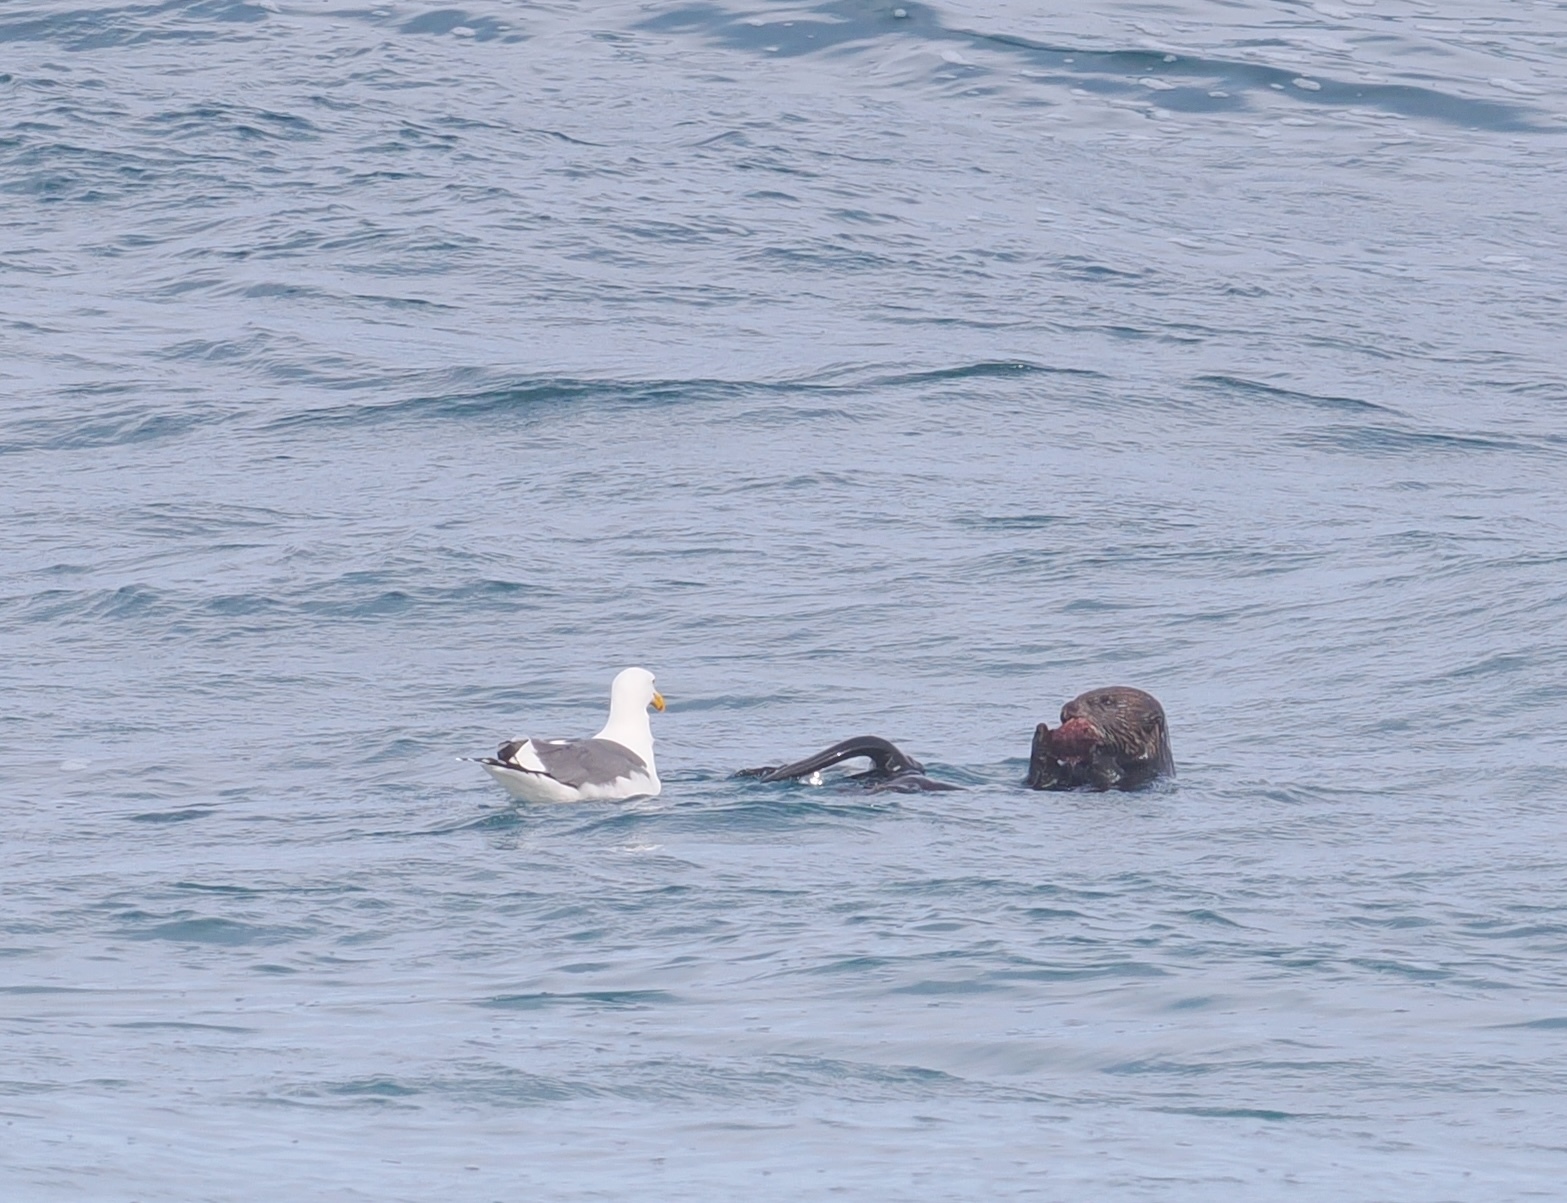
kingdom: Animalia
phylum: Chordata
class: Mammalia
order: Carnivora
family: Mustelidae
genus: Enhydra
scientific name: Enhydra lutris
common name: Sea otter
